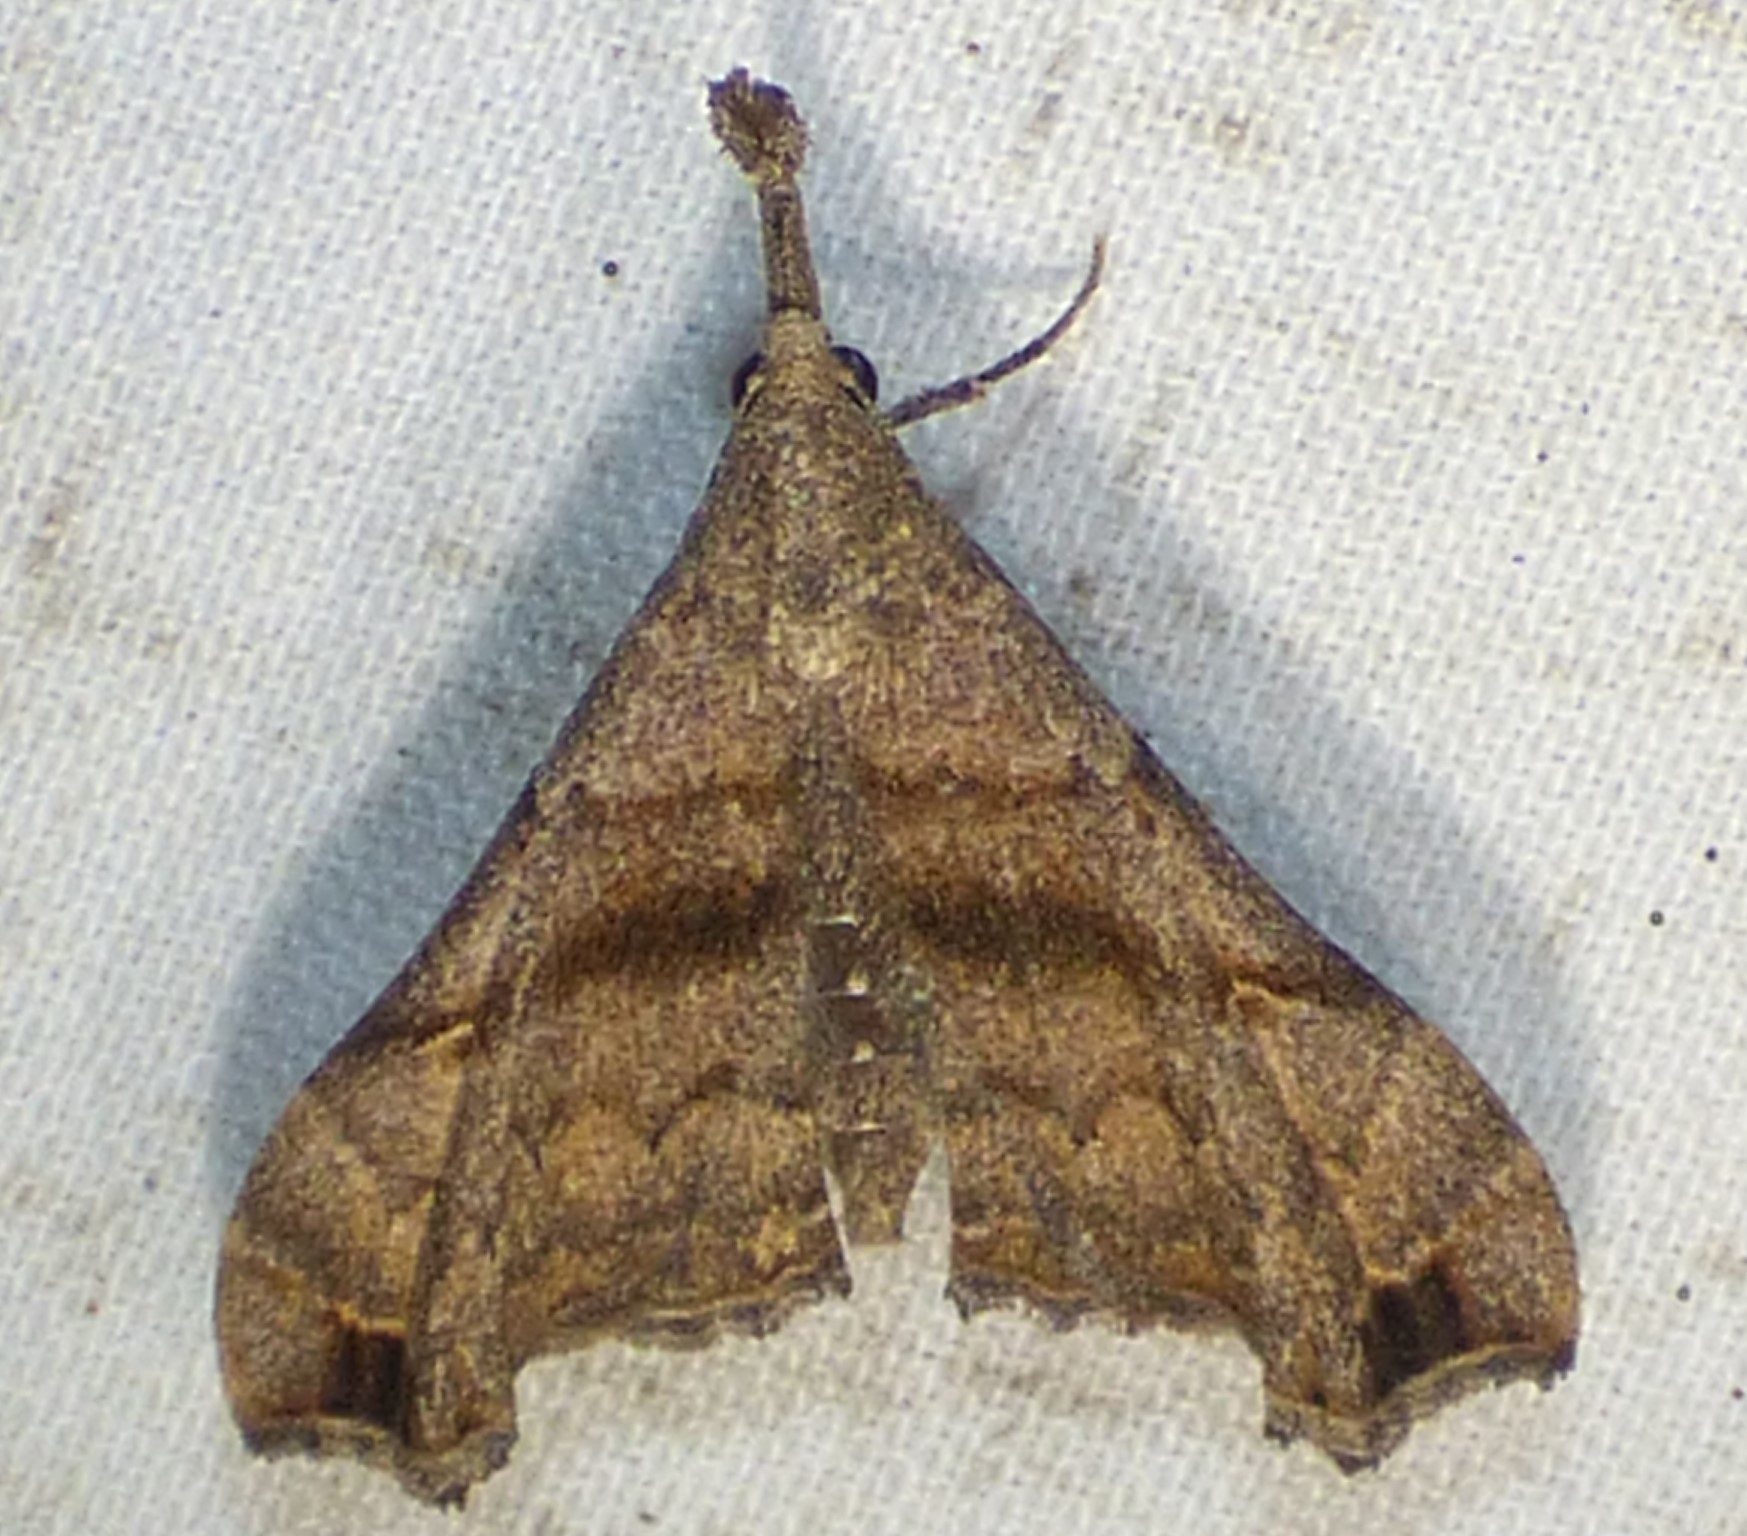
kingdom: Animalia
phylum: Arthropoda
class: Insecta
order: Lepidoptera
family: Erebidae
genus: Palthis
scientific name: Palthis asopialis
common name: Faint-spotted palthis moth
